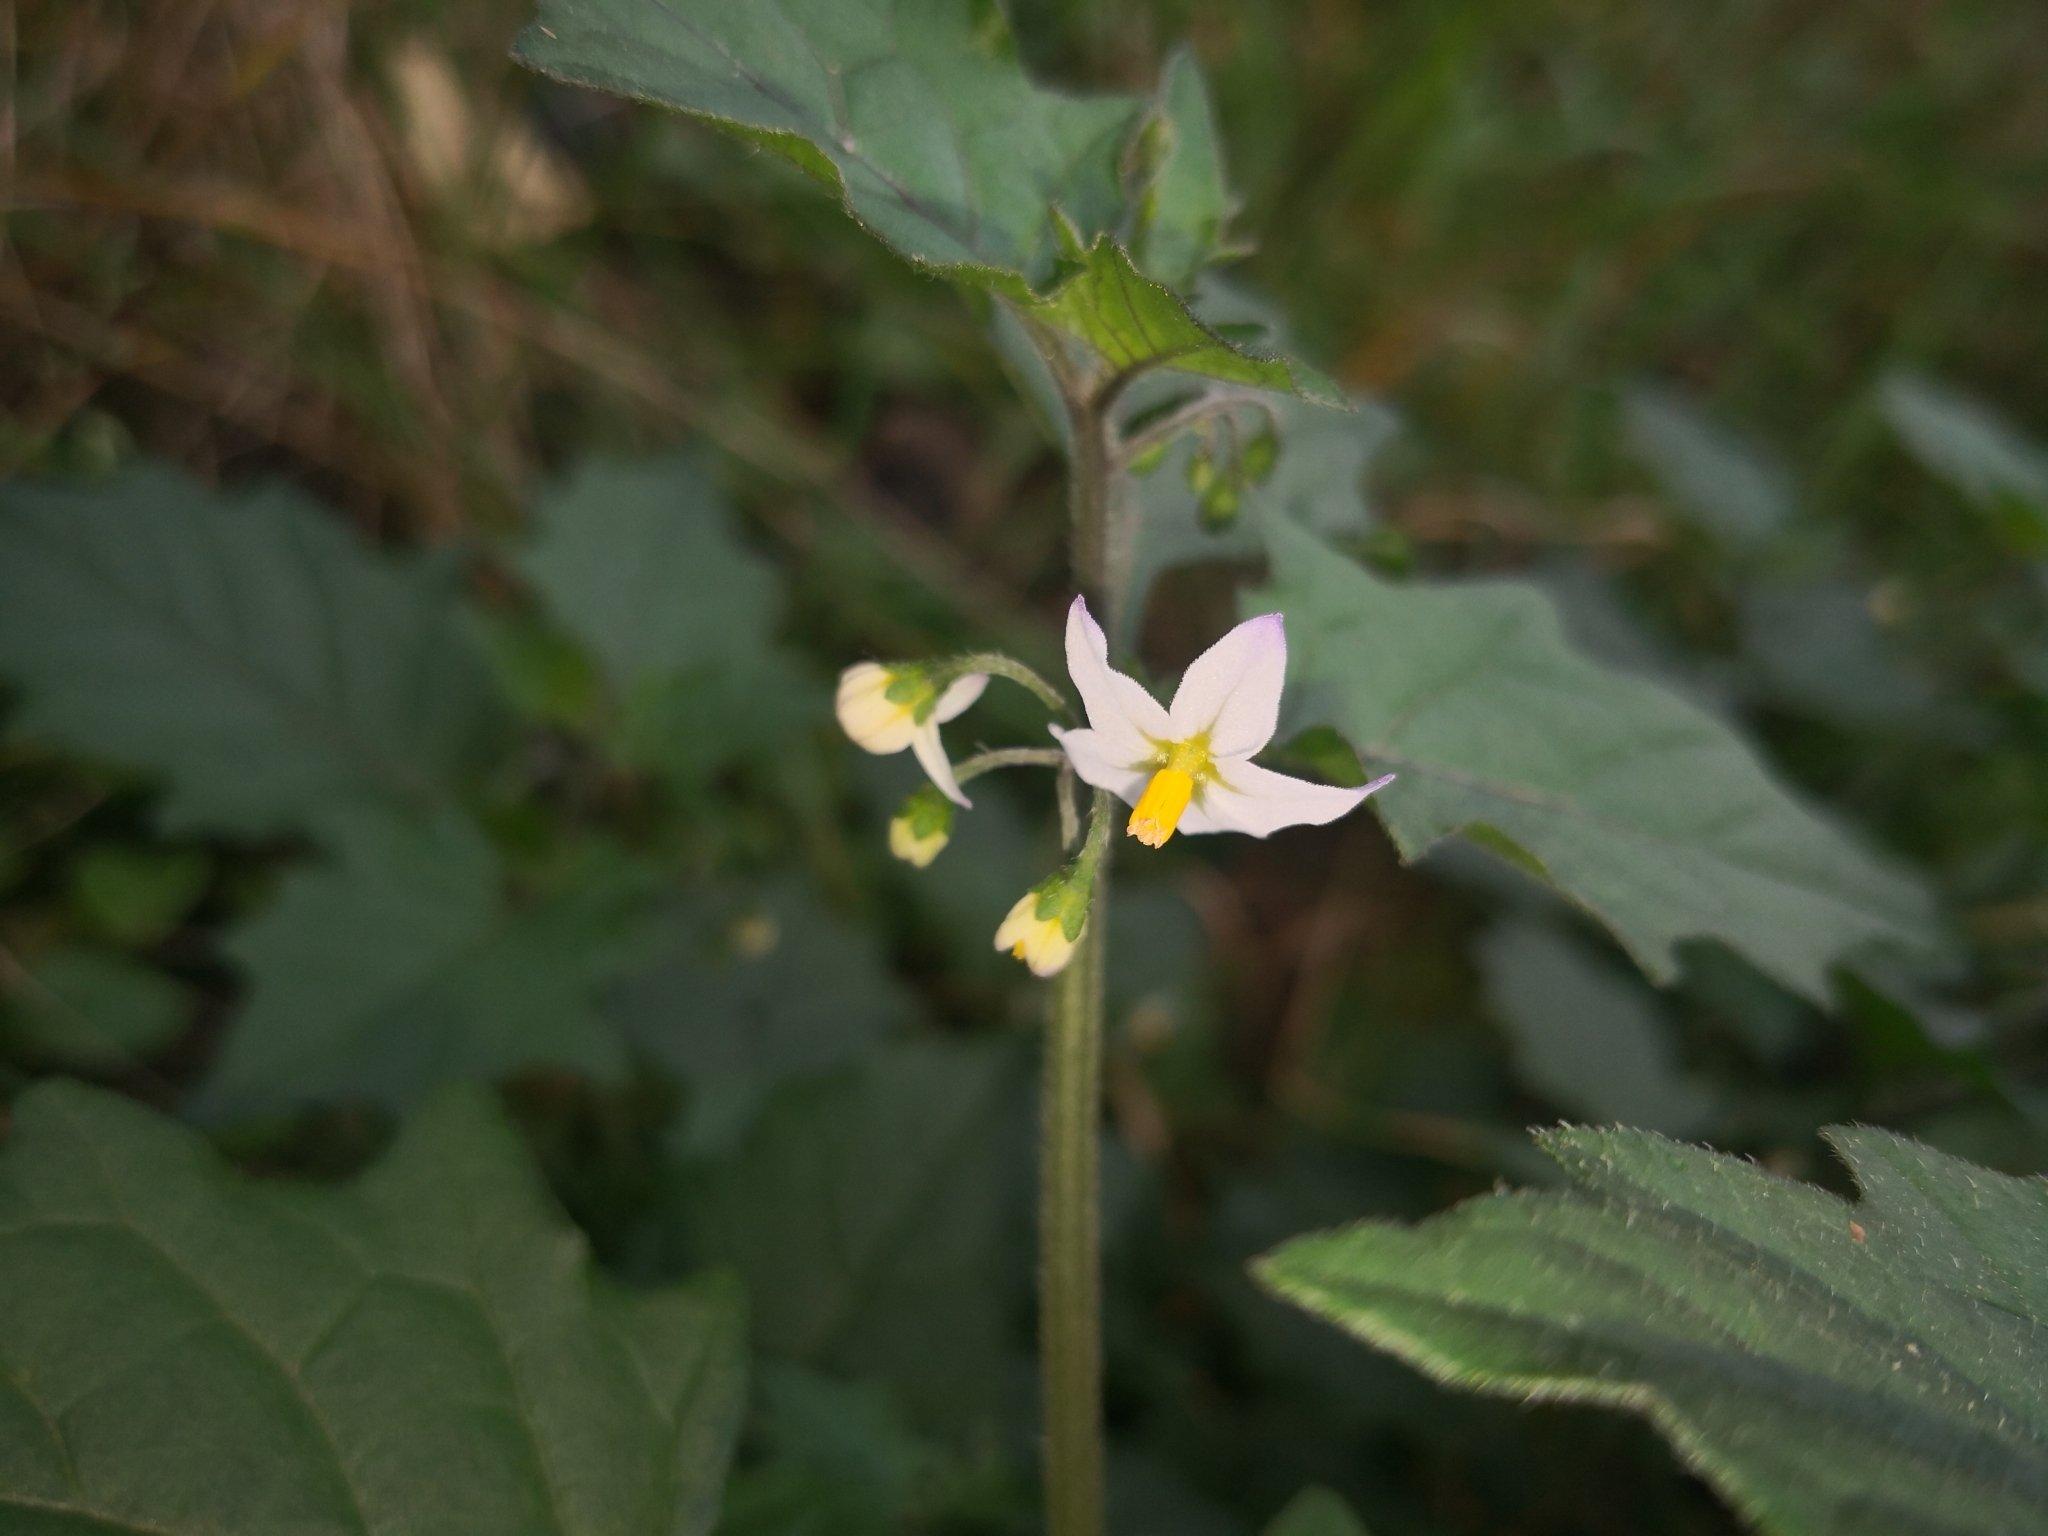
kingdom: Plantae
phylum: Tracheophyta
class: Magnoliopsida
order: Solanales
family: Solanaceae
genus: Solanum
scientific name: Solanum decipiens
